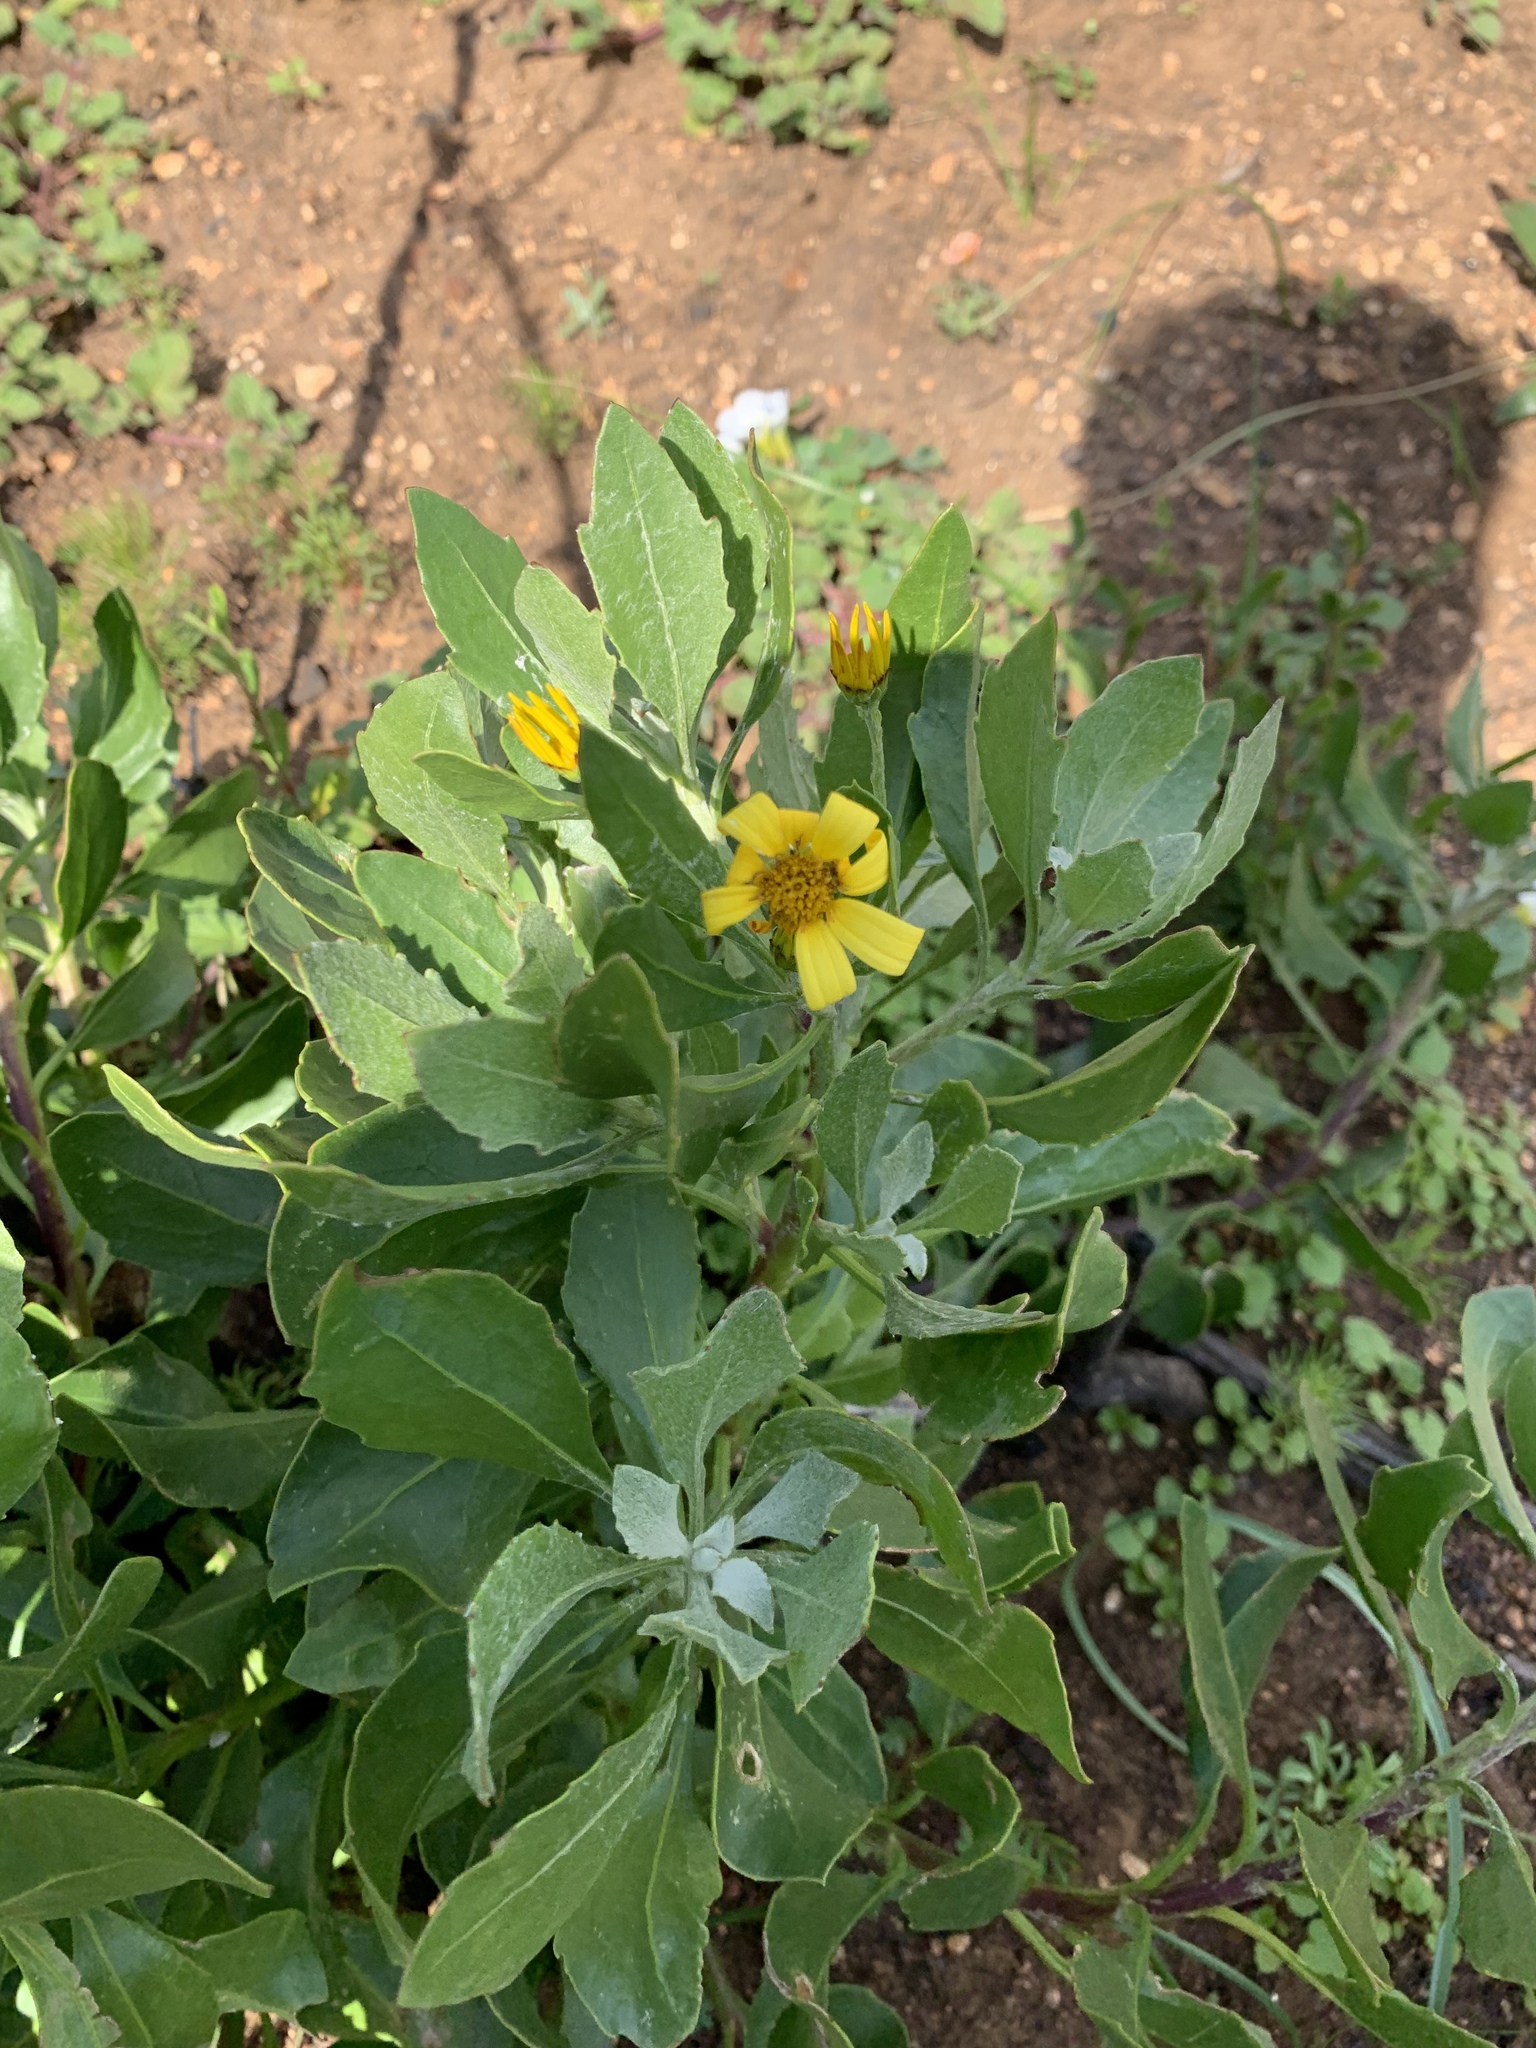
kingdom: Plantae
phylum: Tracheophyta
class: Magnoliopsida
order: Asterales
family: Asteraceae
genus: Osteospermum
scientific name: Osteospermum moniliferum
